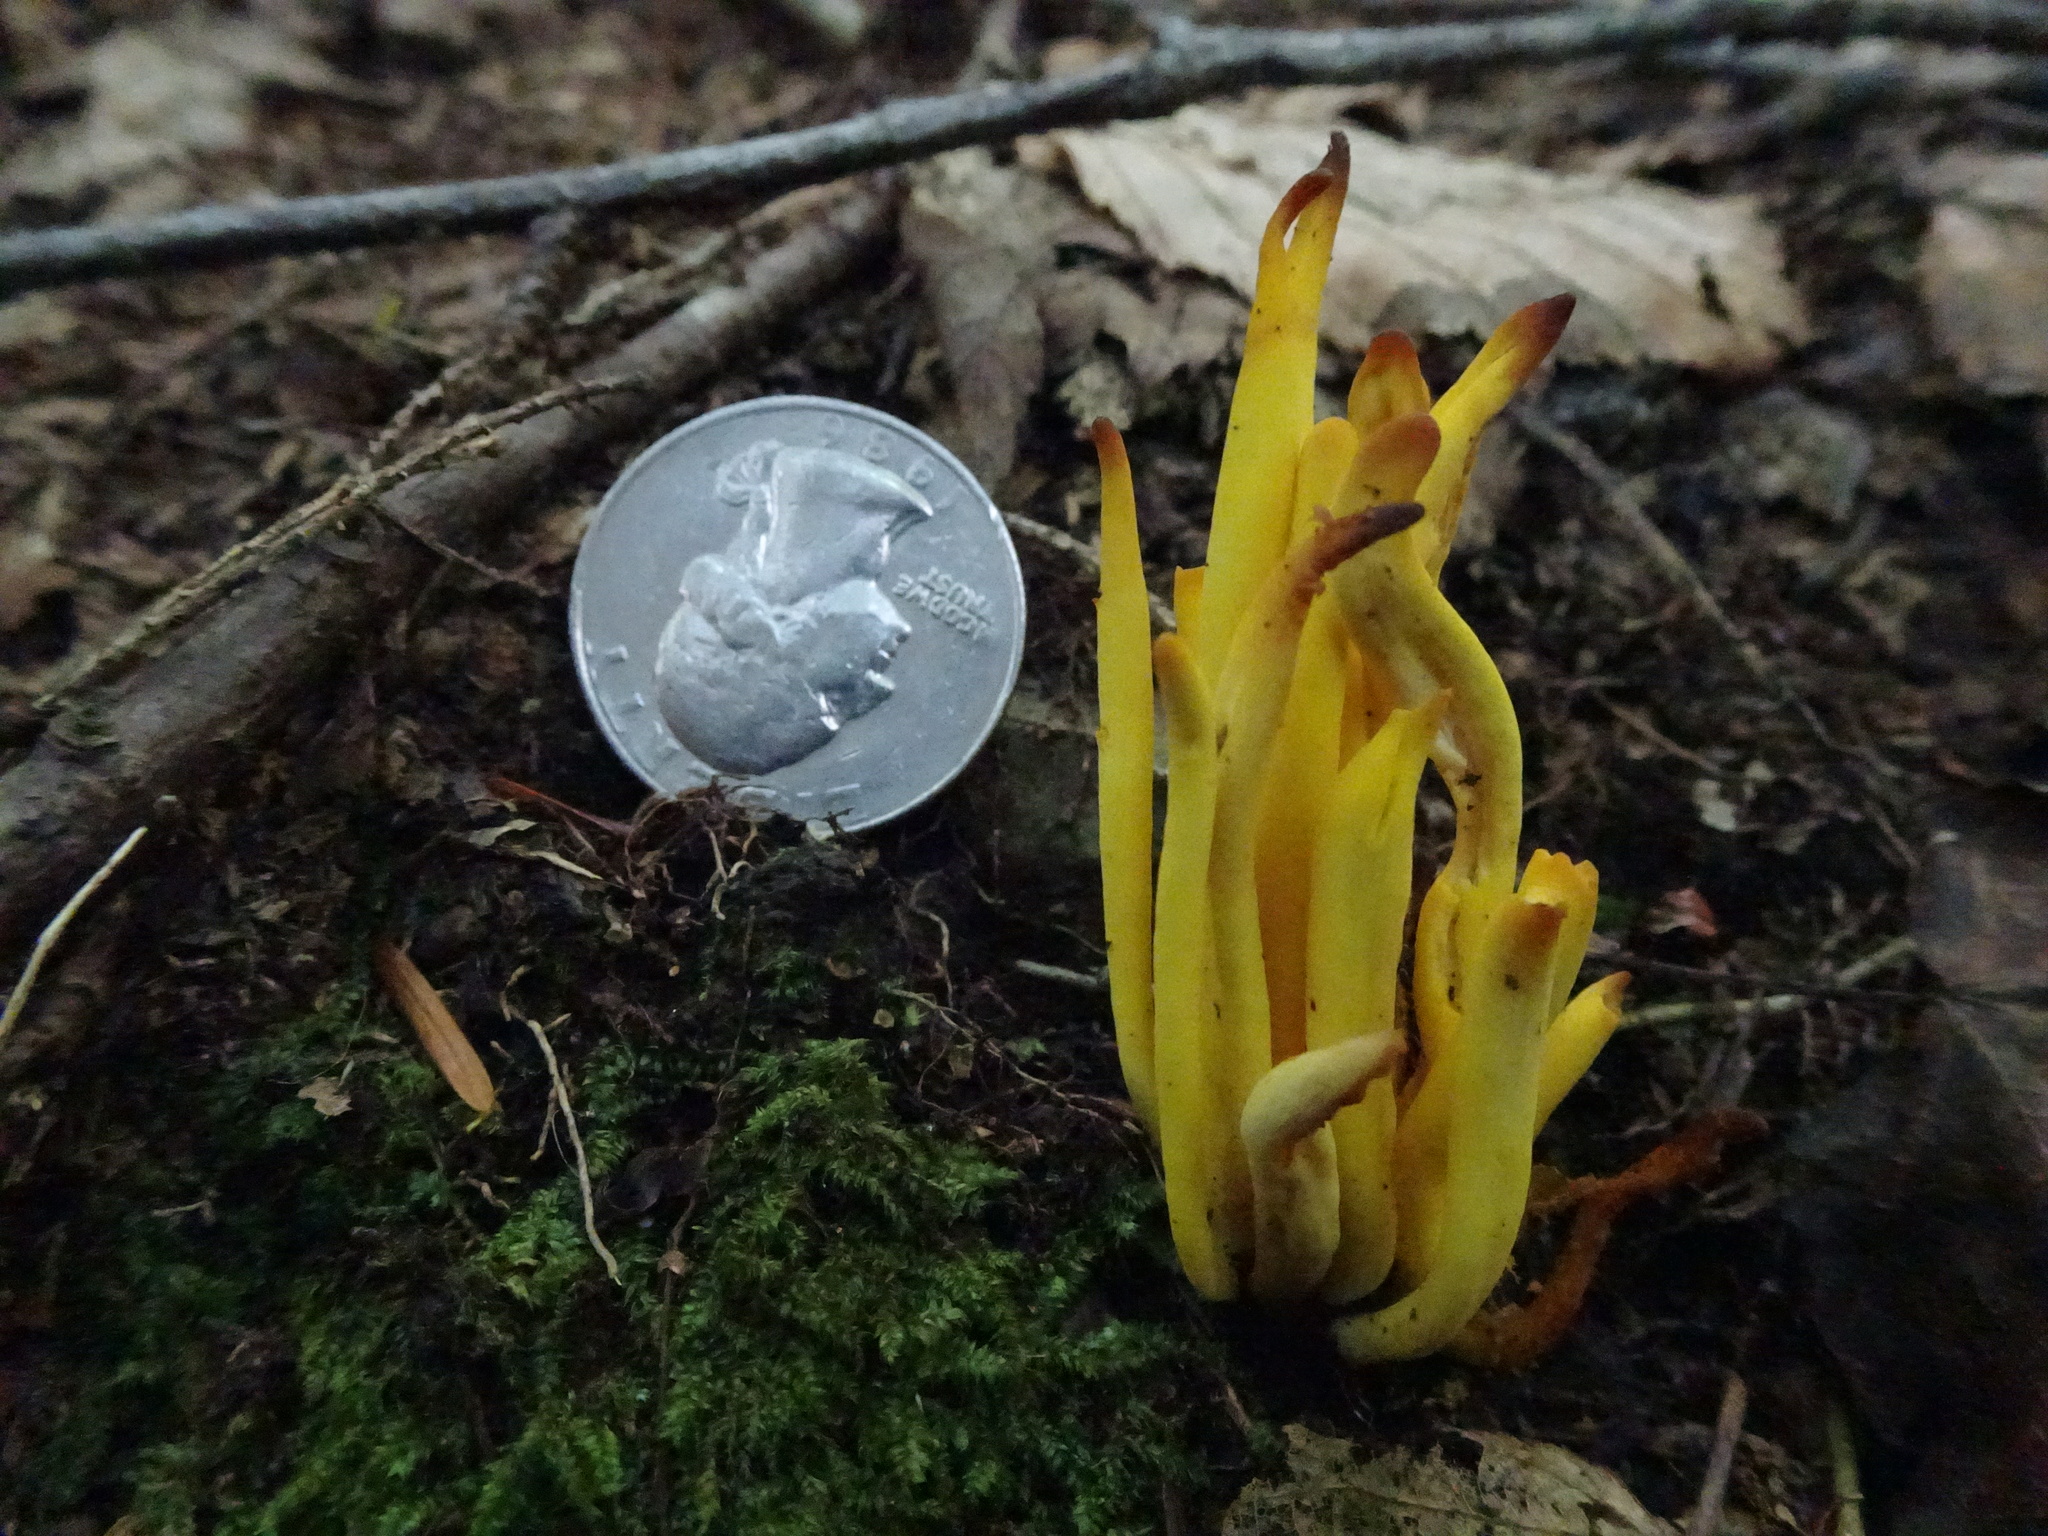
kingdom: Fungi
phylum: Basidiomycota
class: Agaricomycetes
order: Agaricales
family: Clavariaceae
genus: Clavulinopsis
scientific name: Clavulinopsis fusiformis
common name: Golden spindles
